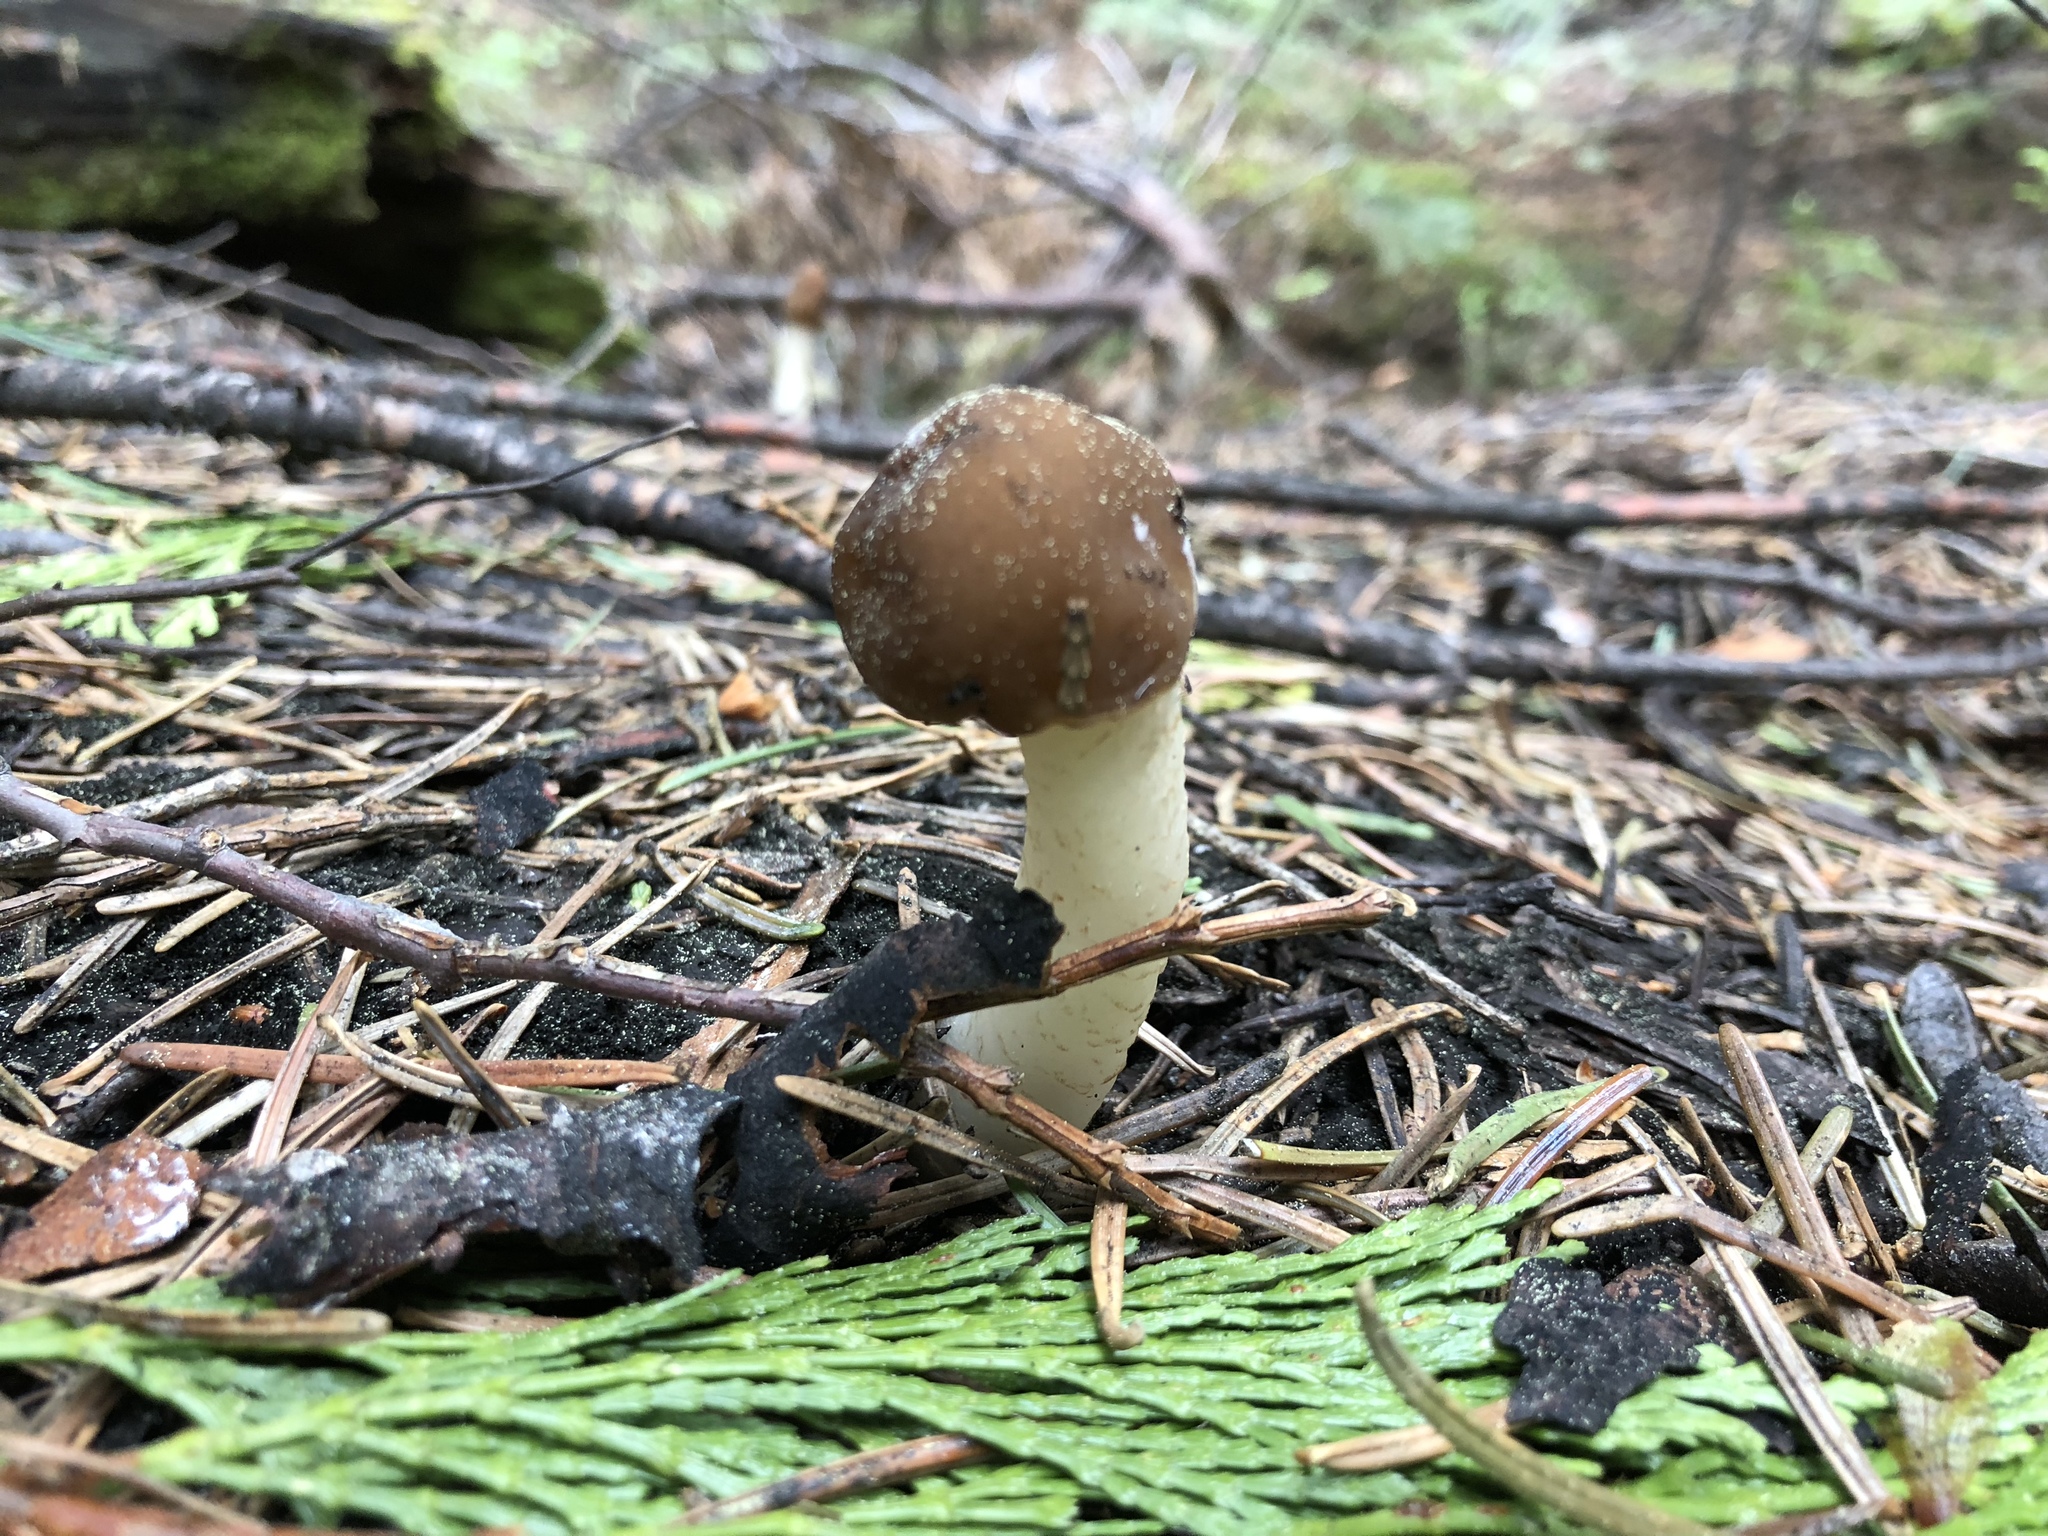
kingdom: Fungi
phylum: Ascomycota
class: Pezizomycetes
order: Pezizales
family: Morchellaceae
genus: Verpa
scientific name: Verpa conica
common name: Thimble morel
